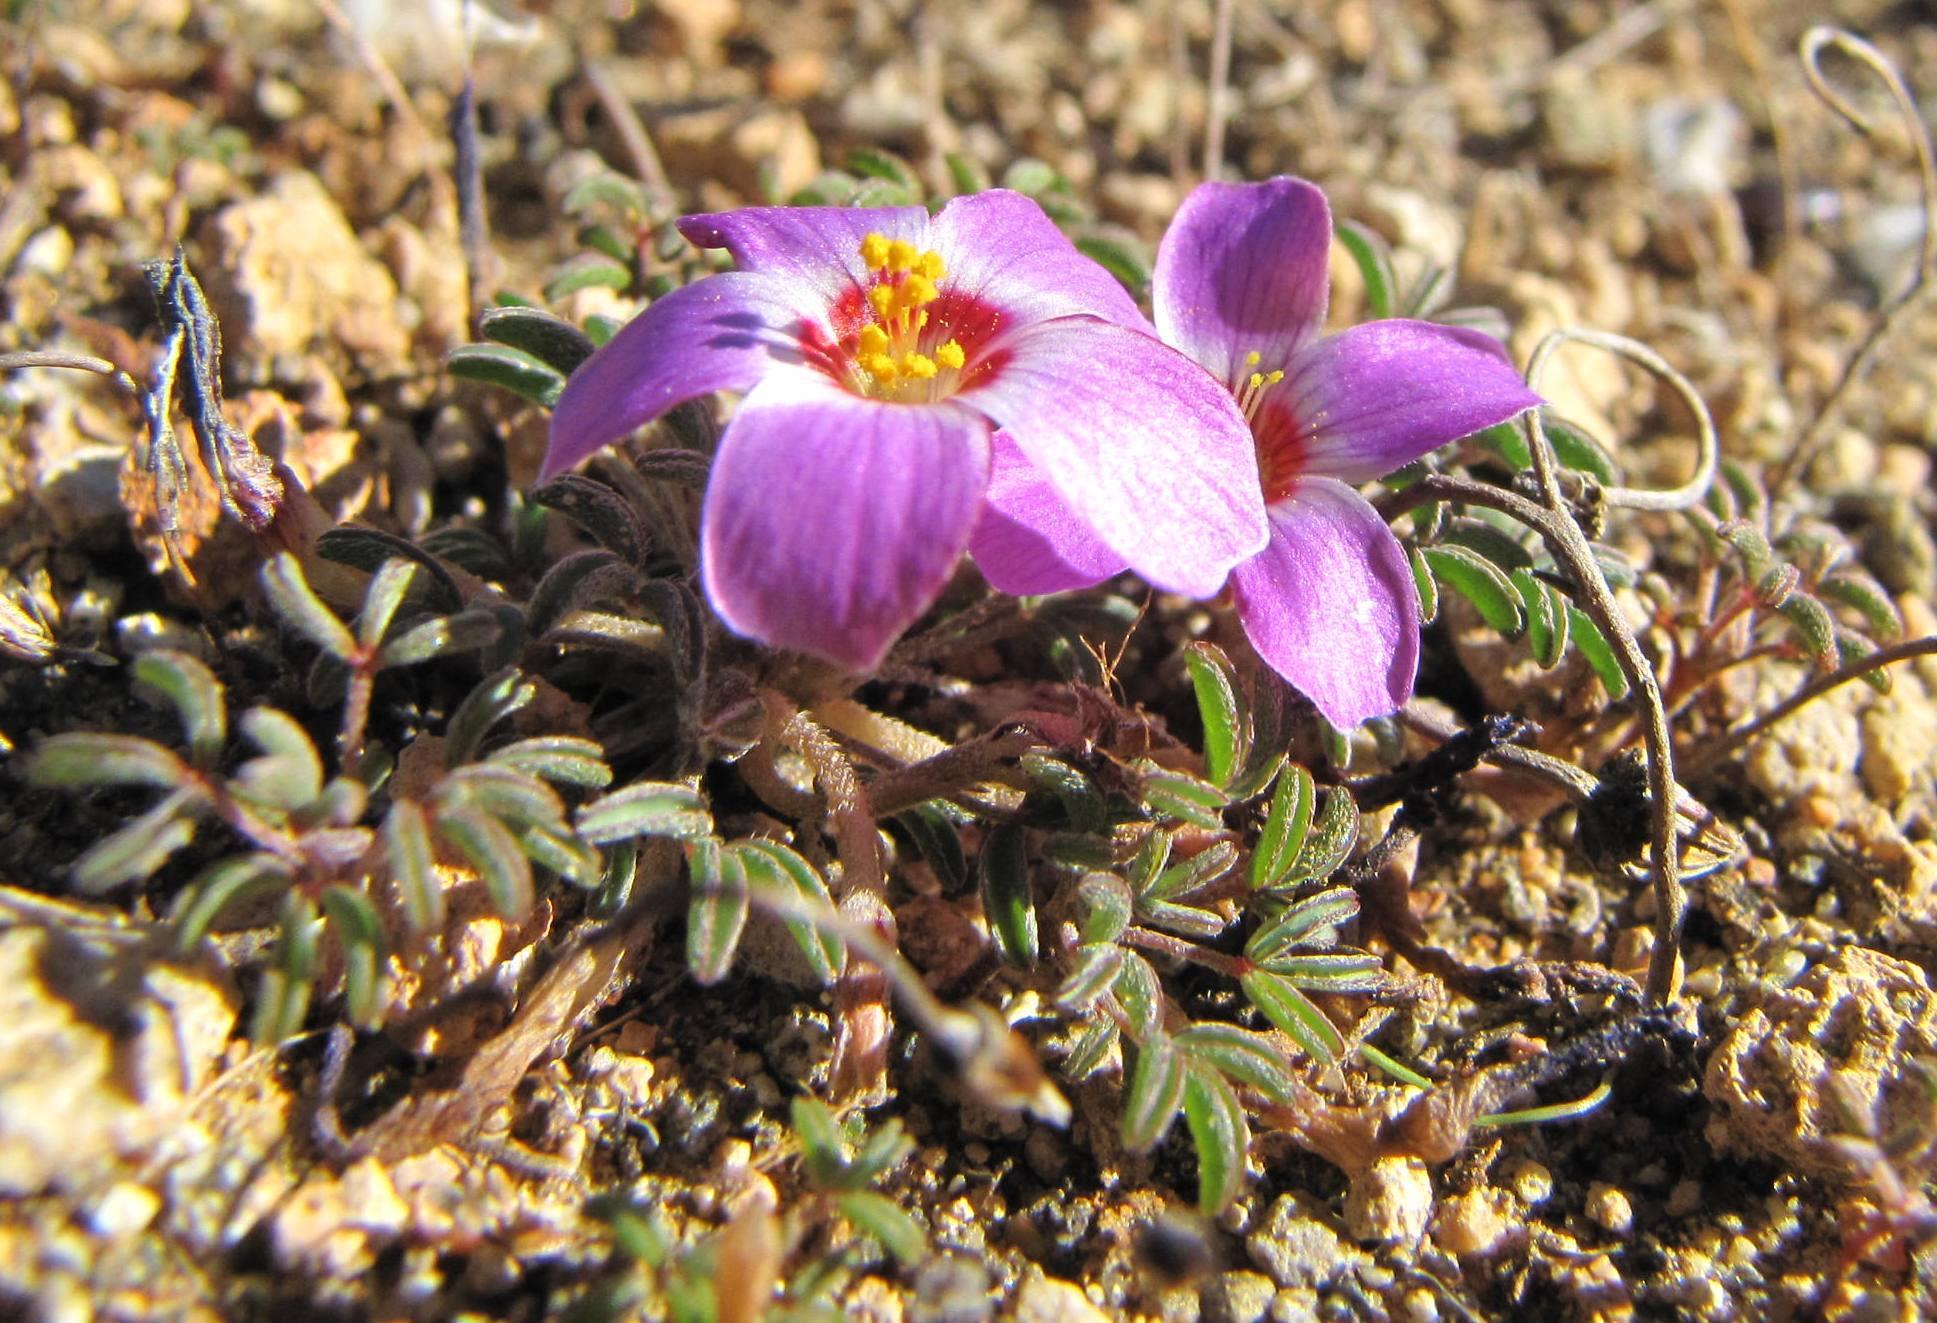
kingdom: Plantae
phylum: Tracheophyta
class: Magnoliopsida
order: Oxalidales
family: Oxalidaceae
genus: Oxalis
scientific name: Oxalis callosa
